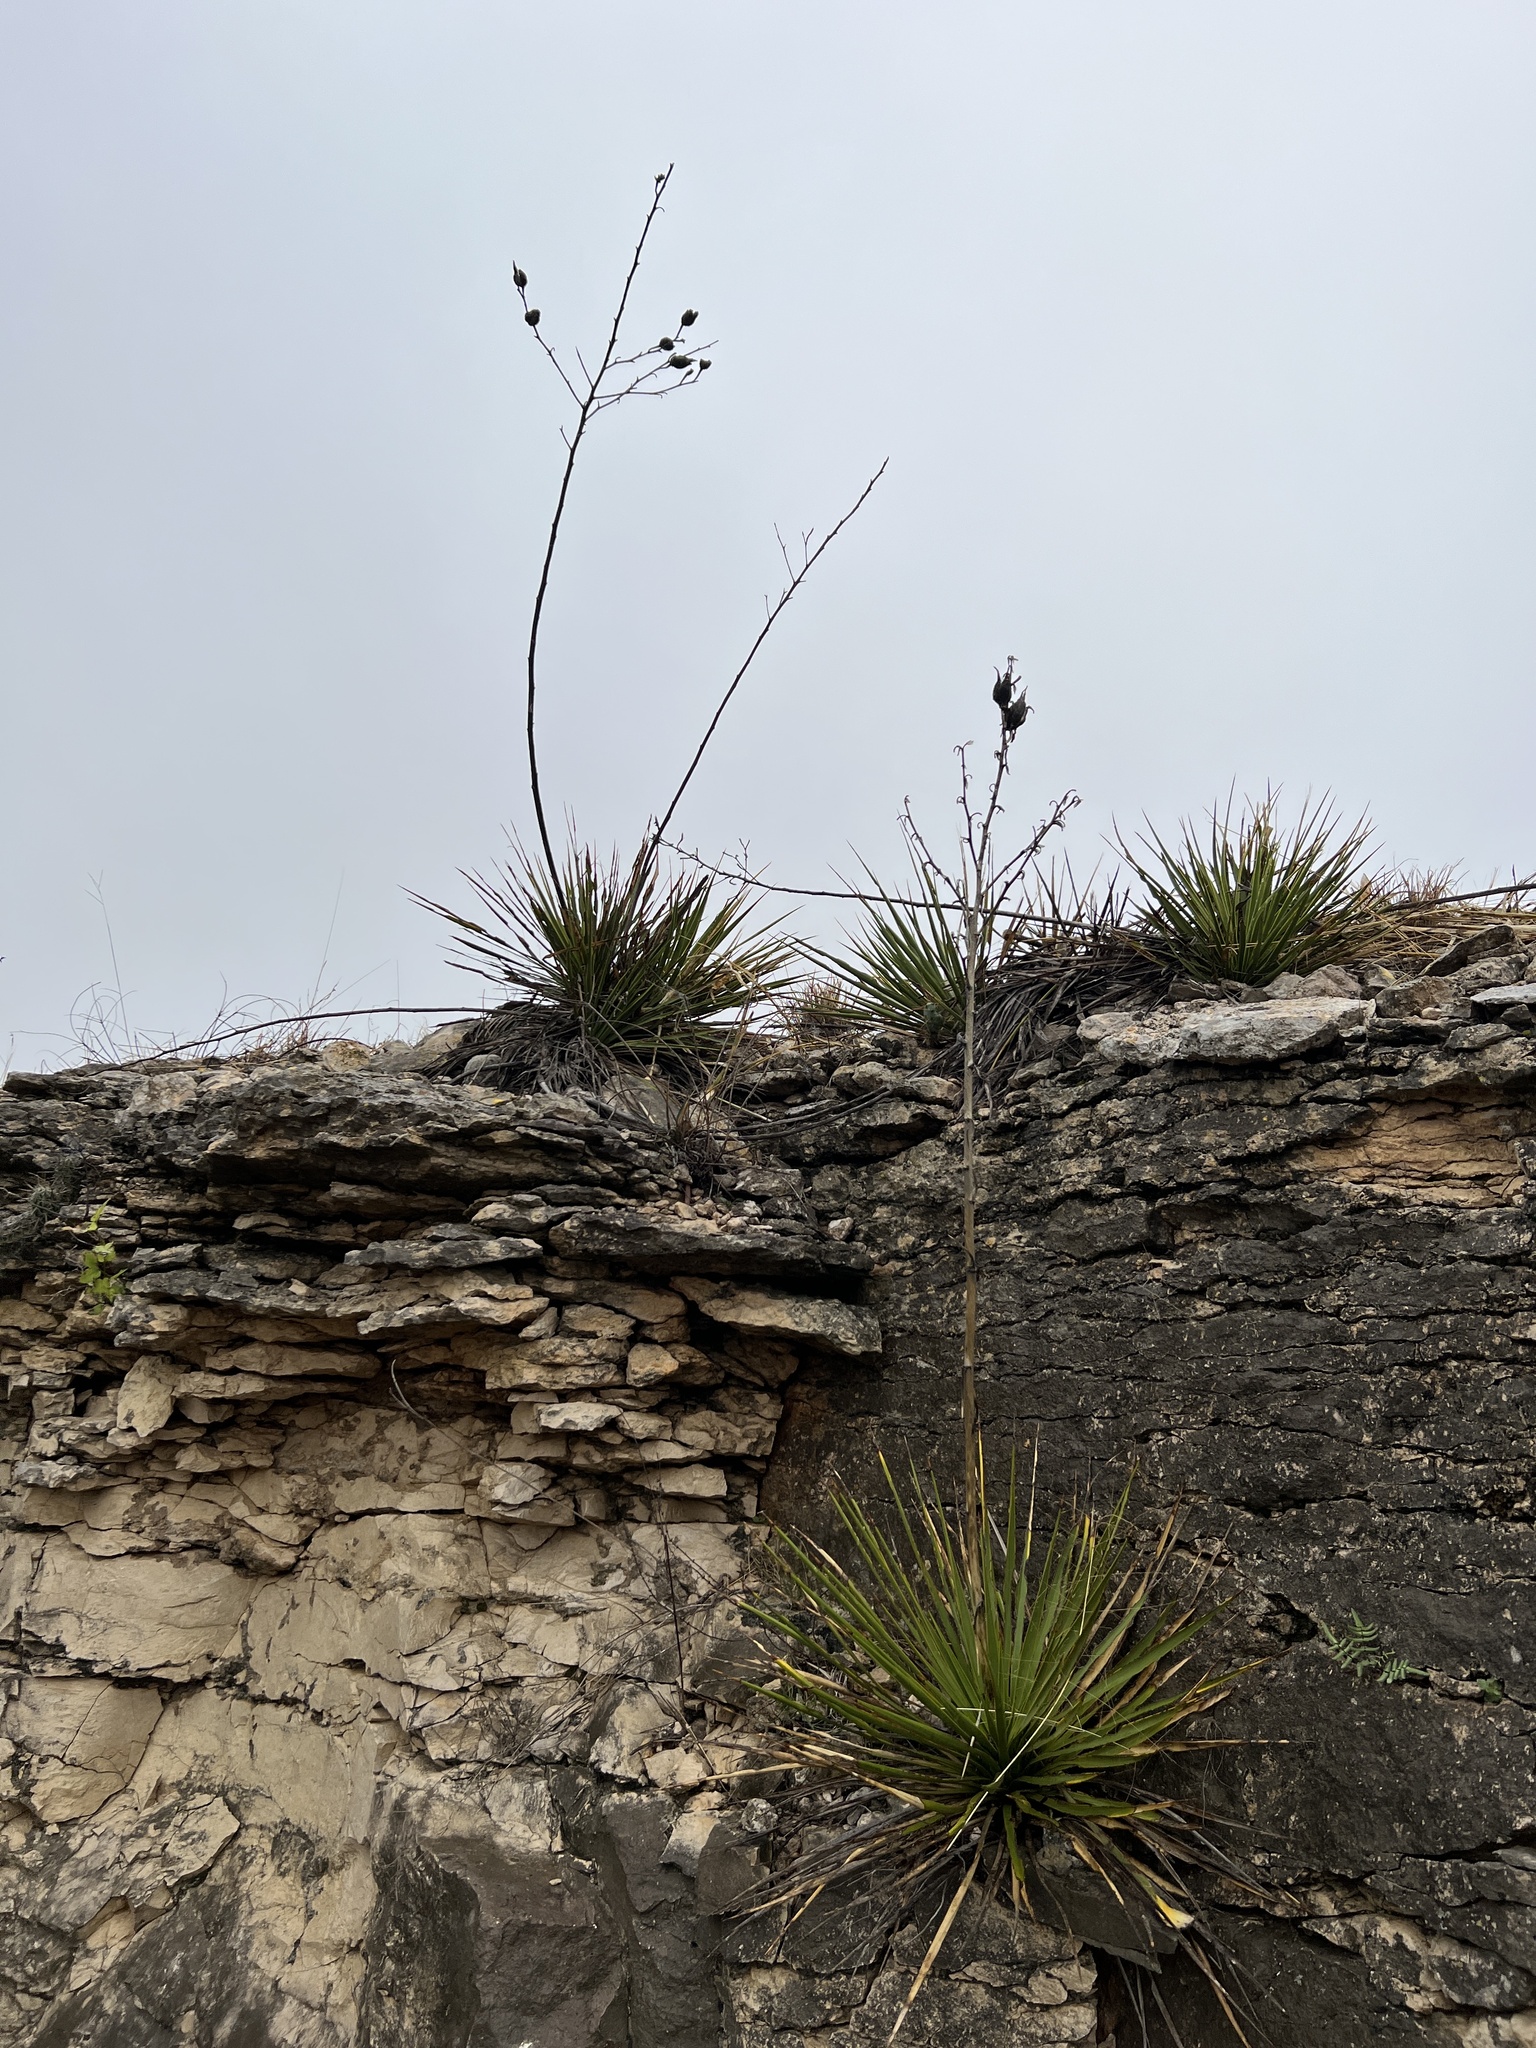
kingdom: Plantae
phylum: Tracheophyta
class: Liliopsida
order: Asparagales
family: Asparagaceae
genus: Yucca
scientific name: Yucca reverchonii
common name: San angelo yucca
